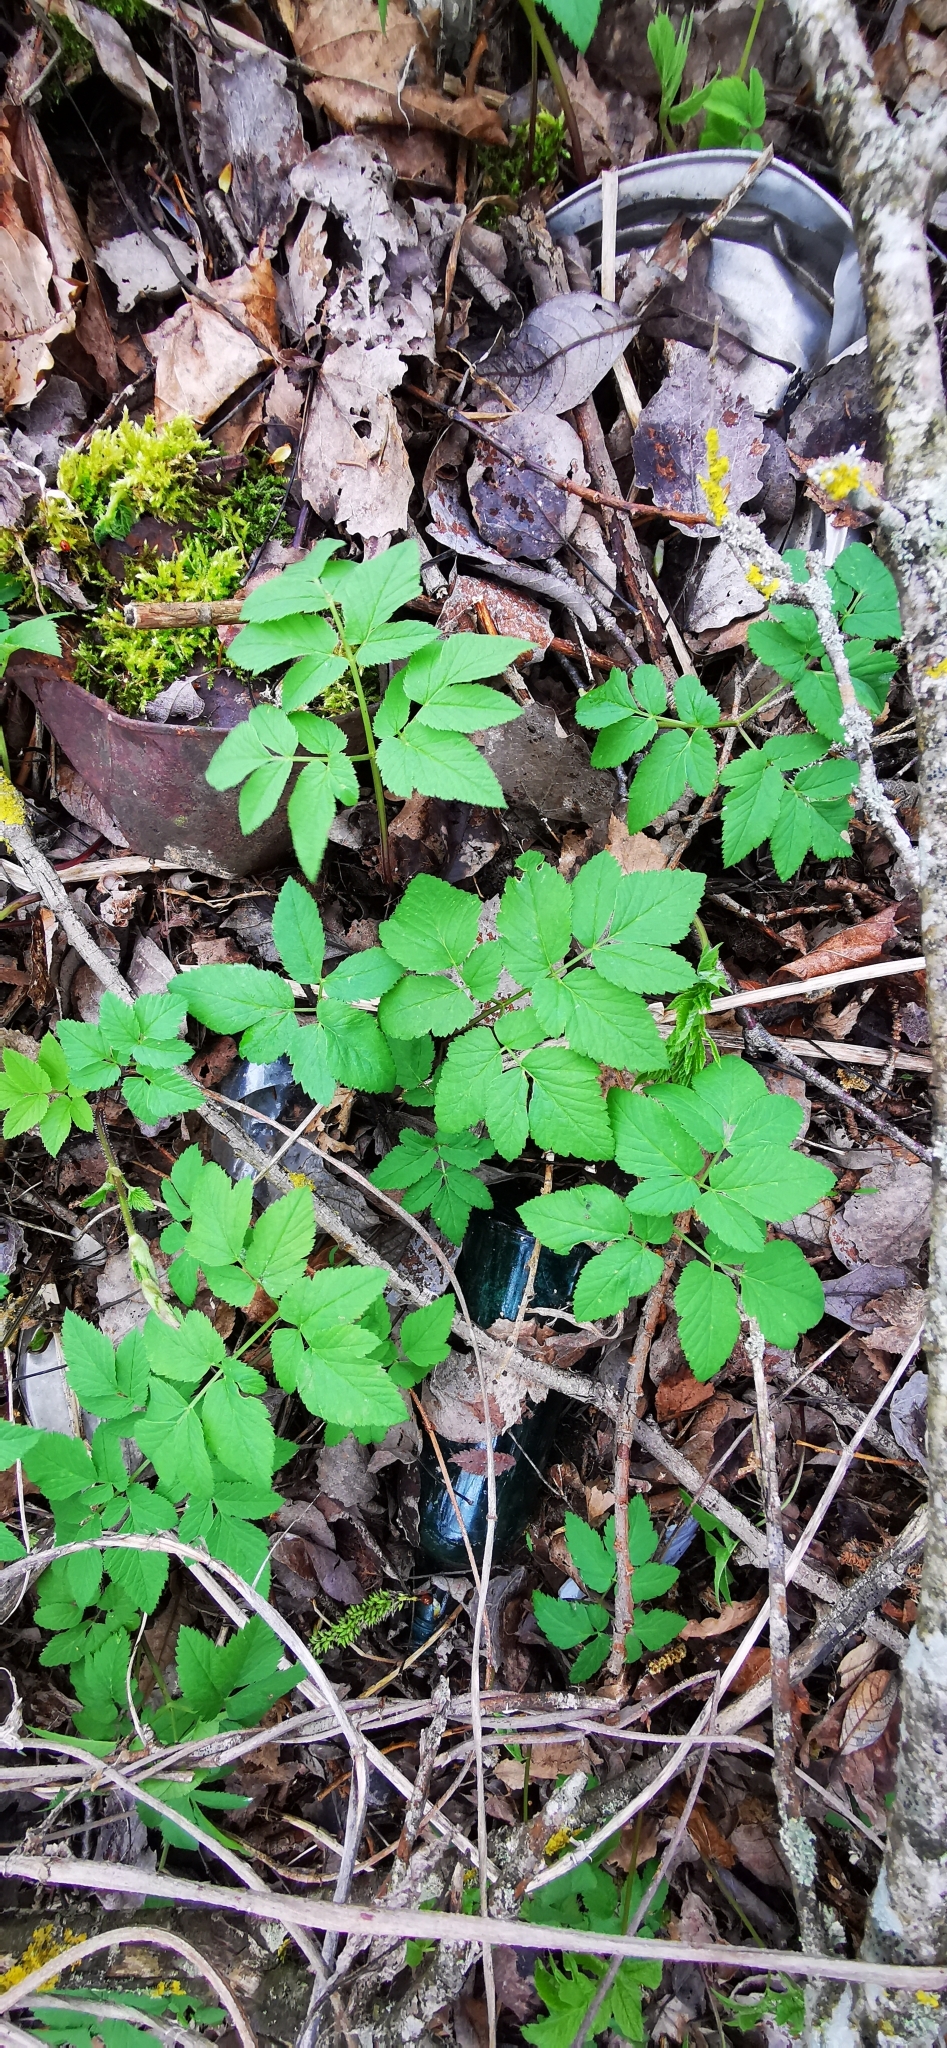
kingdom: Plantae
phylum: Tracheophyta
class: Magnoliopsida
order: Apiales
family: Apiaceae
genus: Aegopodium
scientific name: Aegopodium podagraria
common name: Ground-elder
